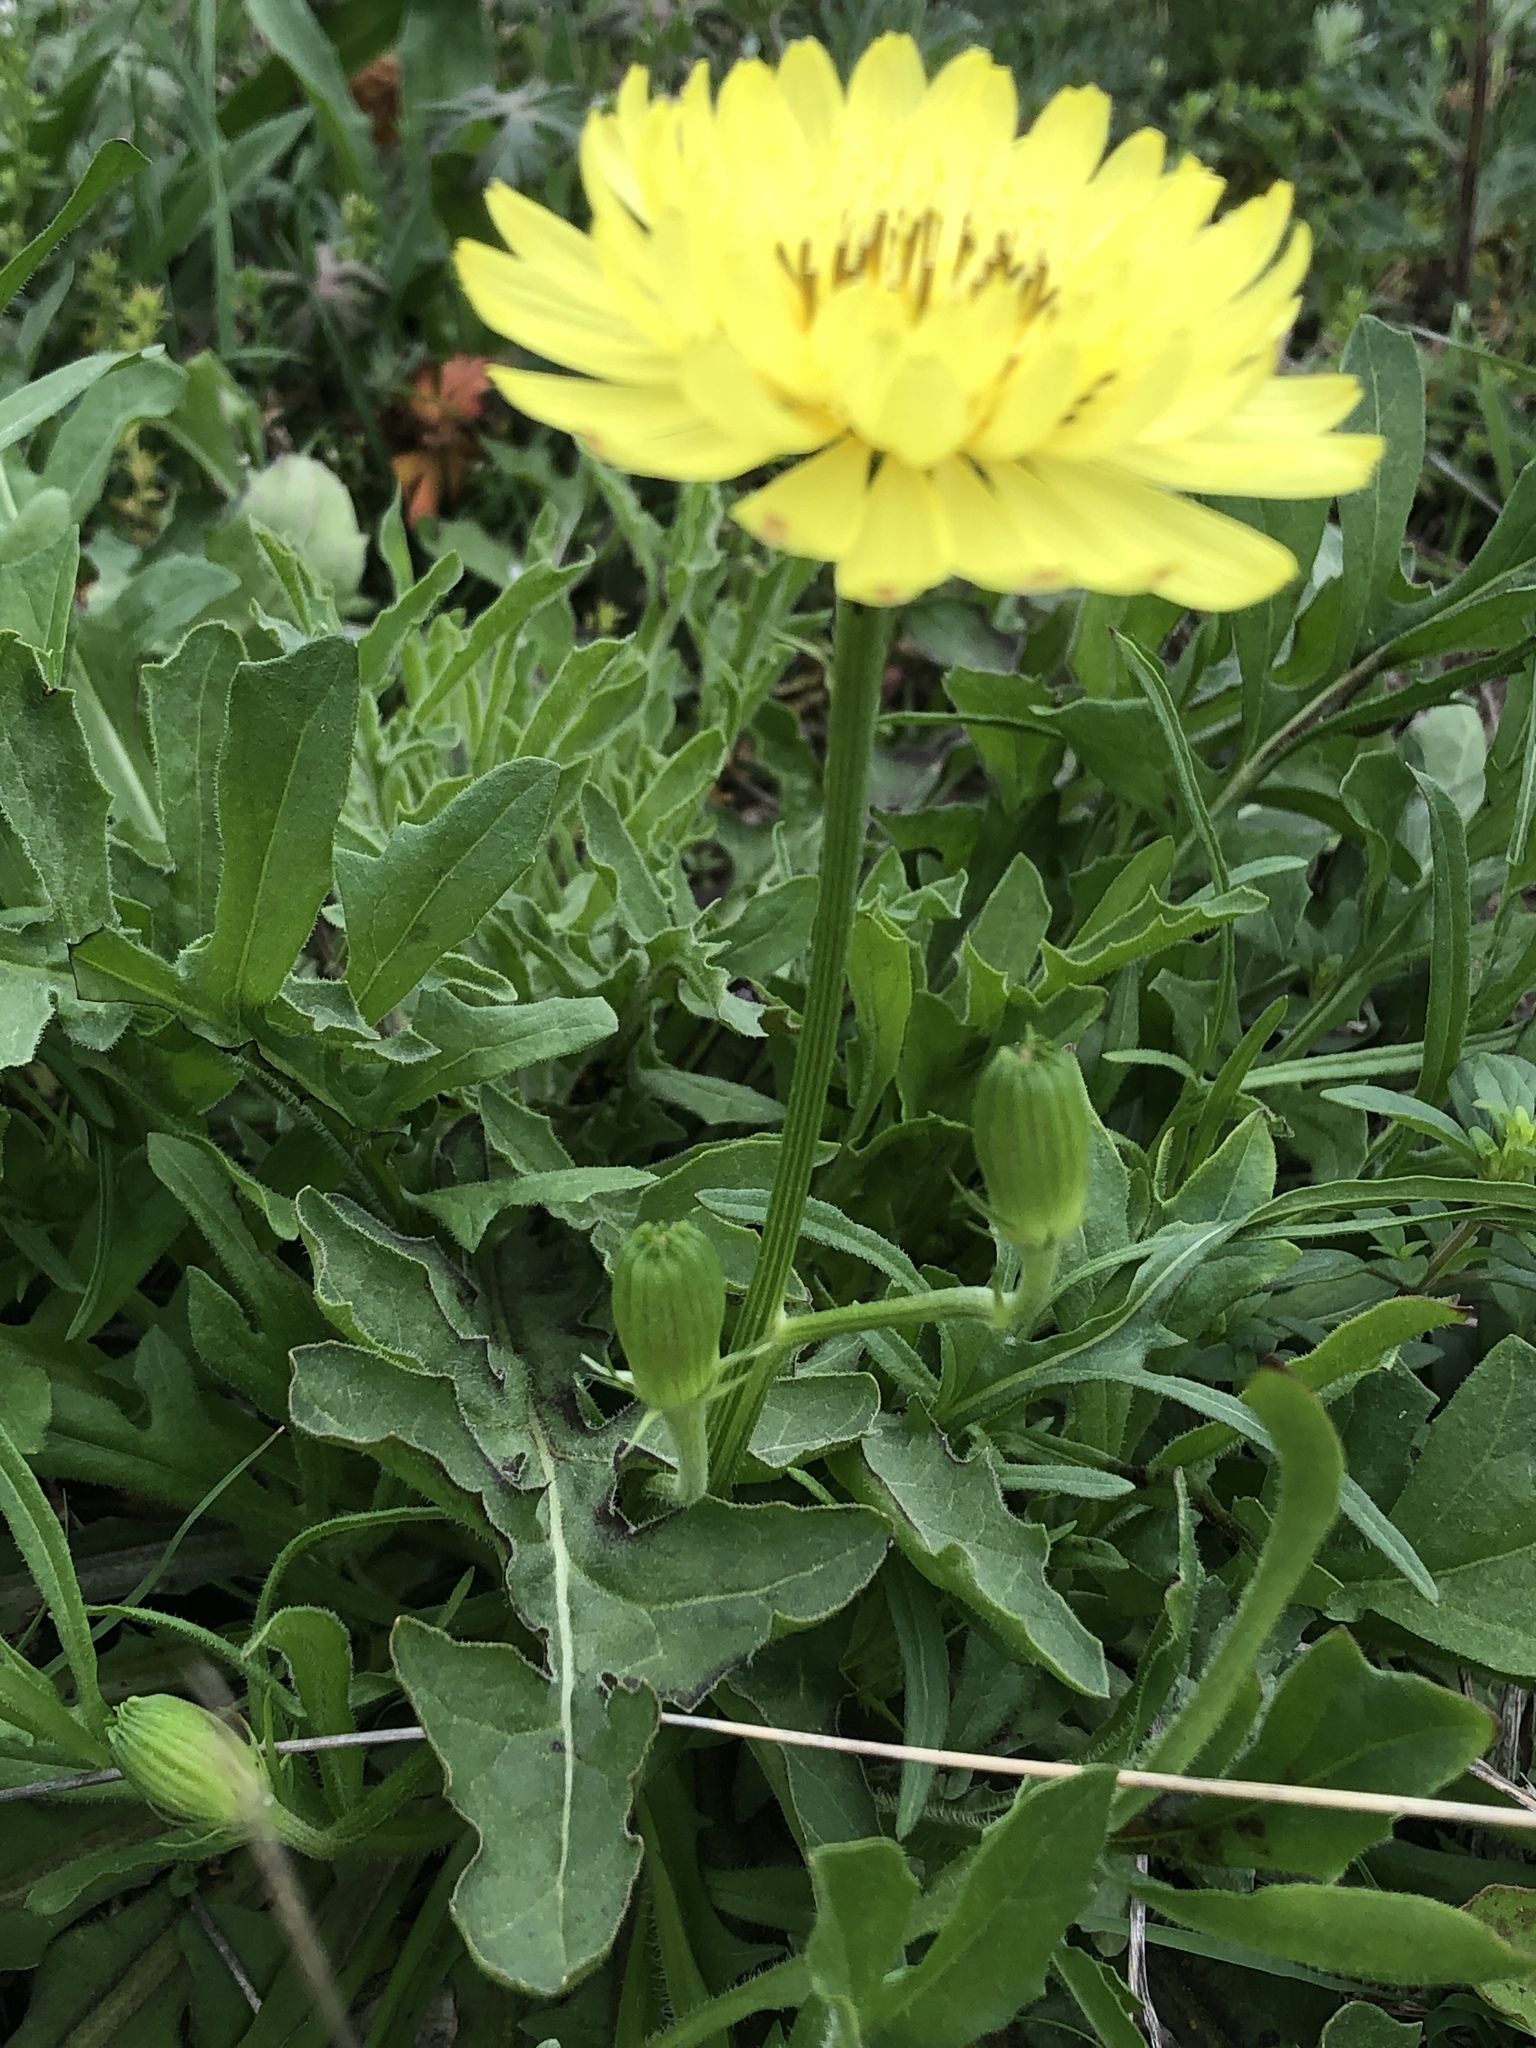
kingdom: Plantae
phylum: Tracheophyta
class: Magnoliopsida
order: Asterales
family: Asteraceae
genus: Pyrrhopappus
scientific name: Pyrrhopappus pauciflorus
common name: Texas false dandelion
